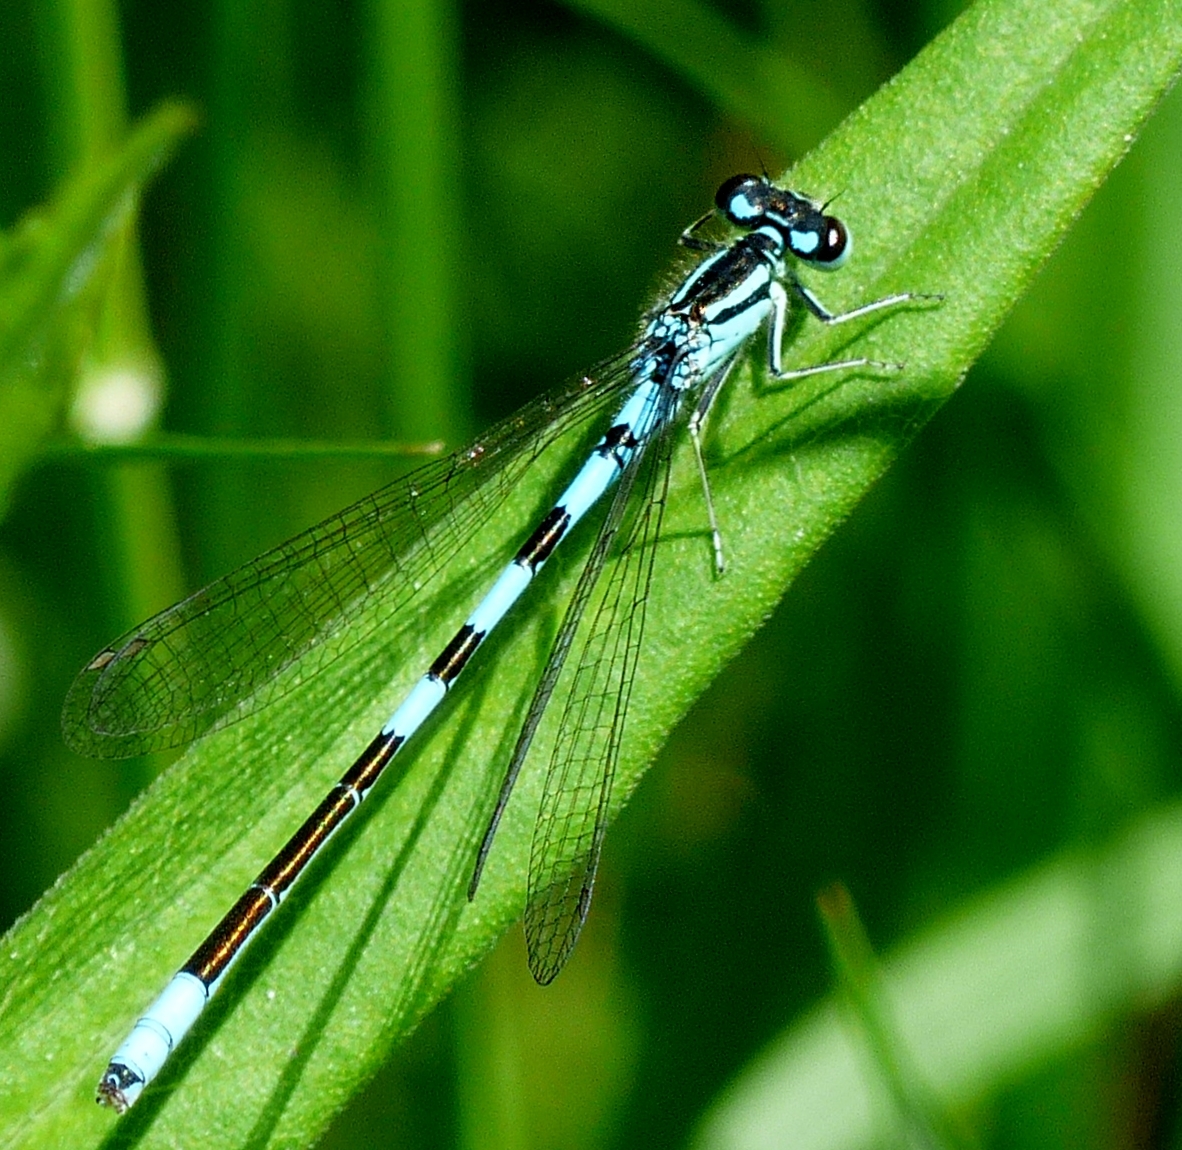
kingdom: Animalia
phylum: Arthropoda
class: Insecta
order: Odonata
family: Coenagrionidae
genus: Coenagrion
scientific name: Coenagrion resolutum
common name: Taiga bluet
